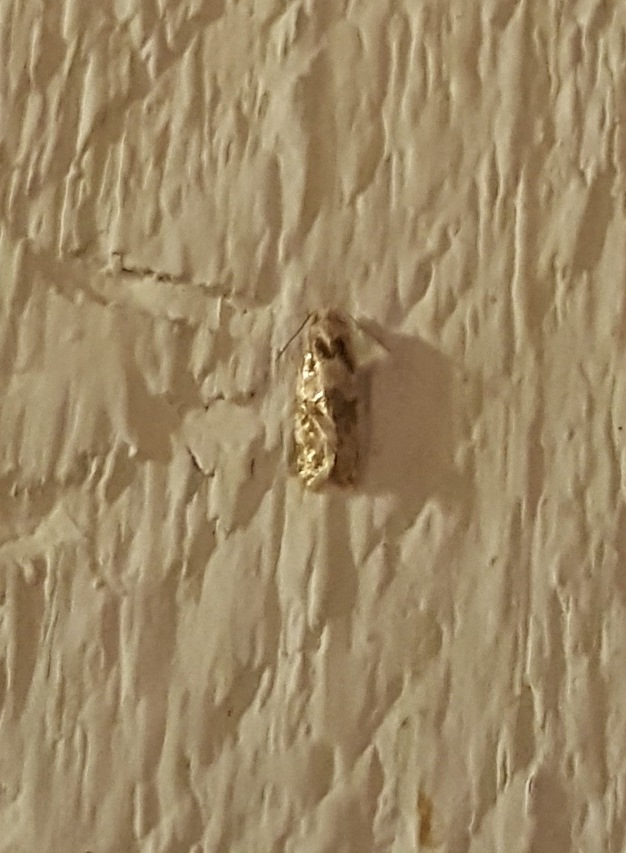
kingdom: Animalia
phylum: Arthropoda
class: Insecta
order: Lepidoptera
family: Tortricidae
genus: Aethes
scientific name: Aethes argentilimitana
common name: Silver-bordered aethes
